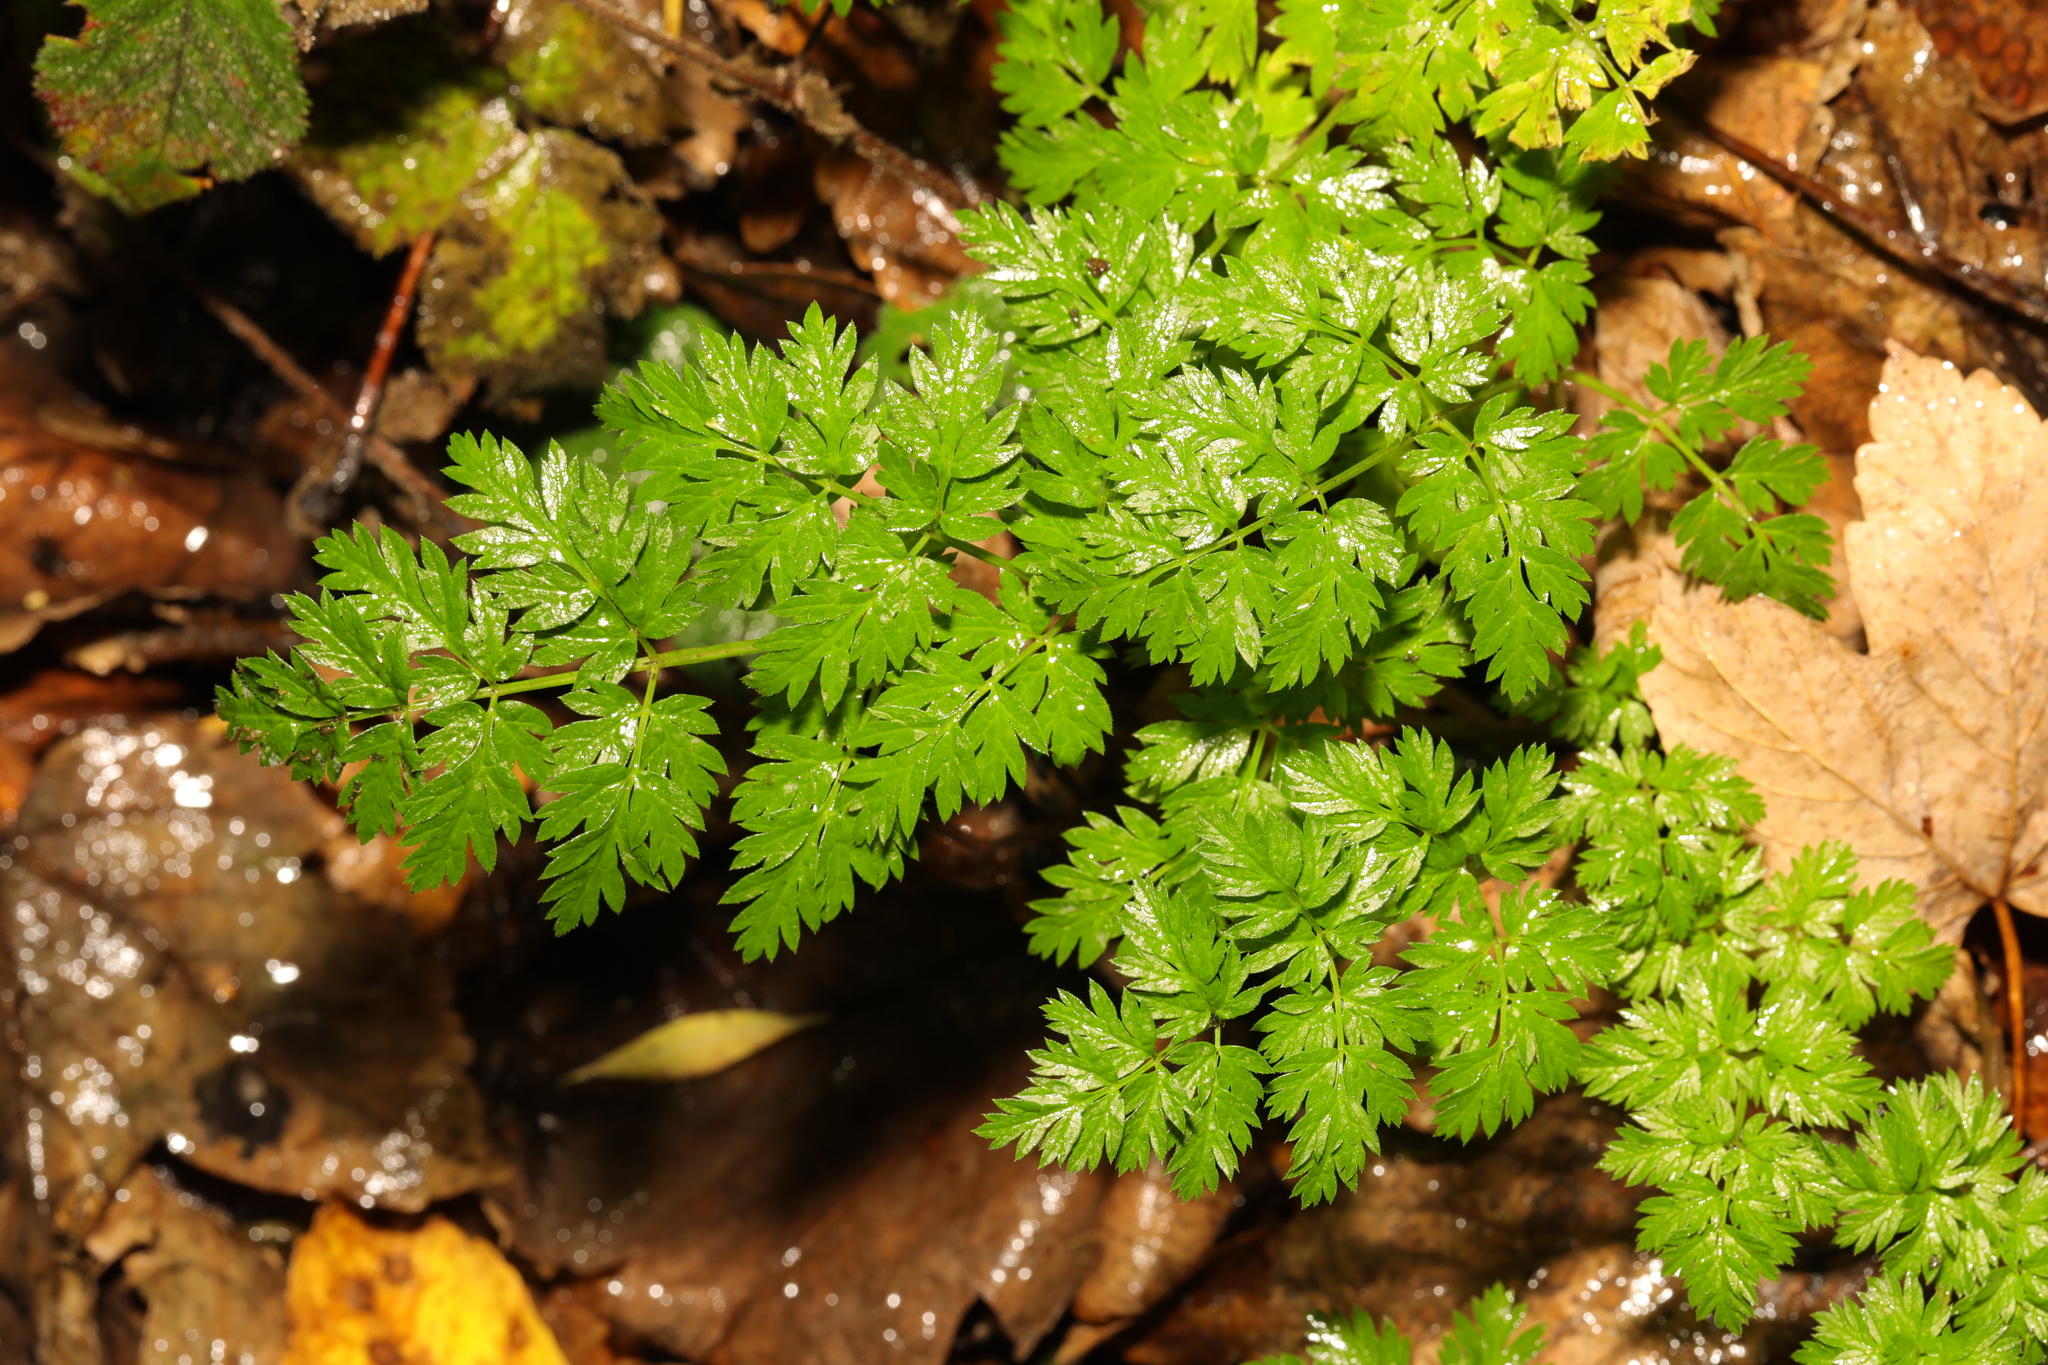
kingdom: Plantae
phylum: Tracheophyta
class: Magnoliopsida
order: Apiales
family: Apiaceae
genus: Anthriscus
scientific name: Anthriscus sylvestris
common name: Cow parsley
